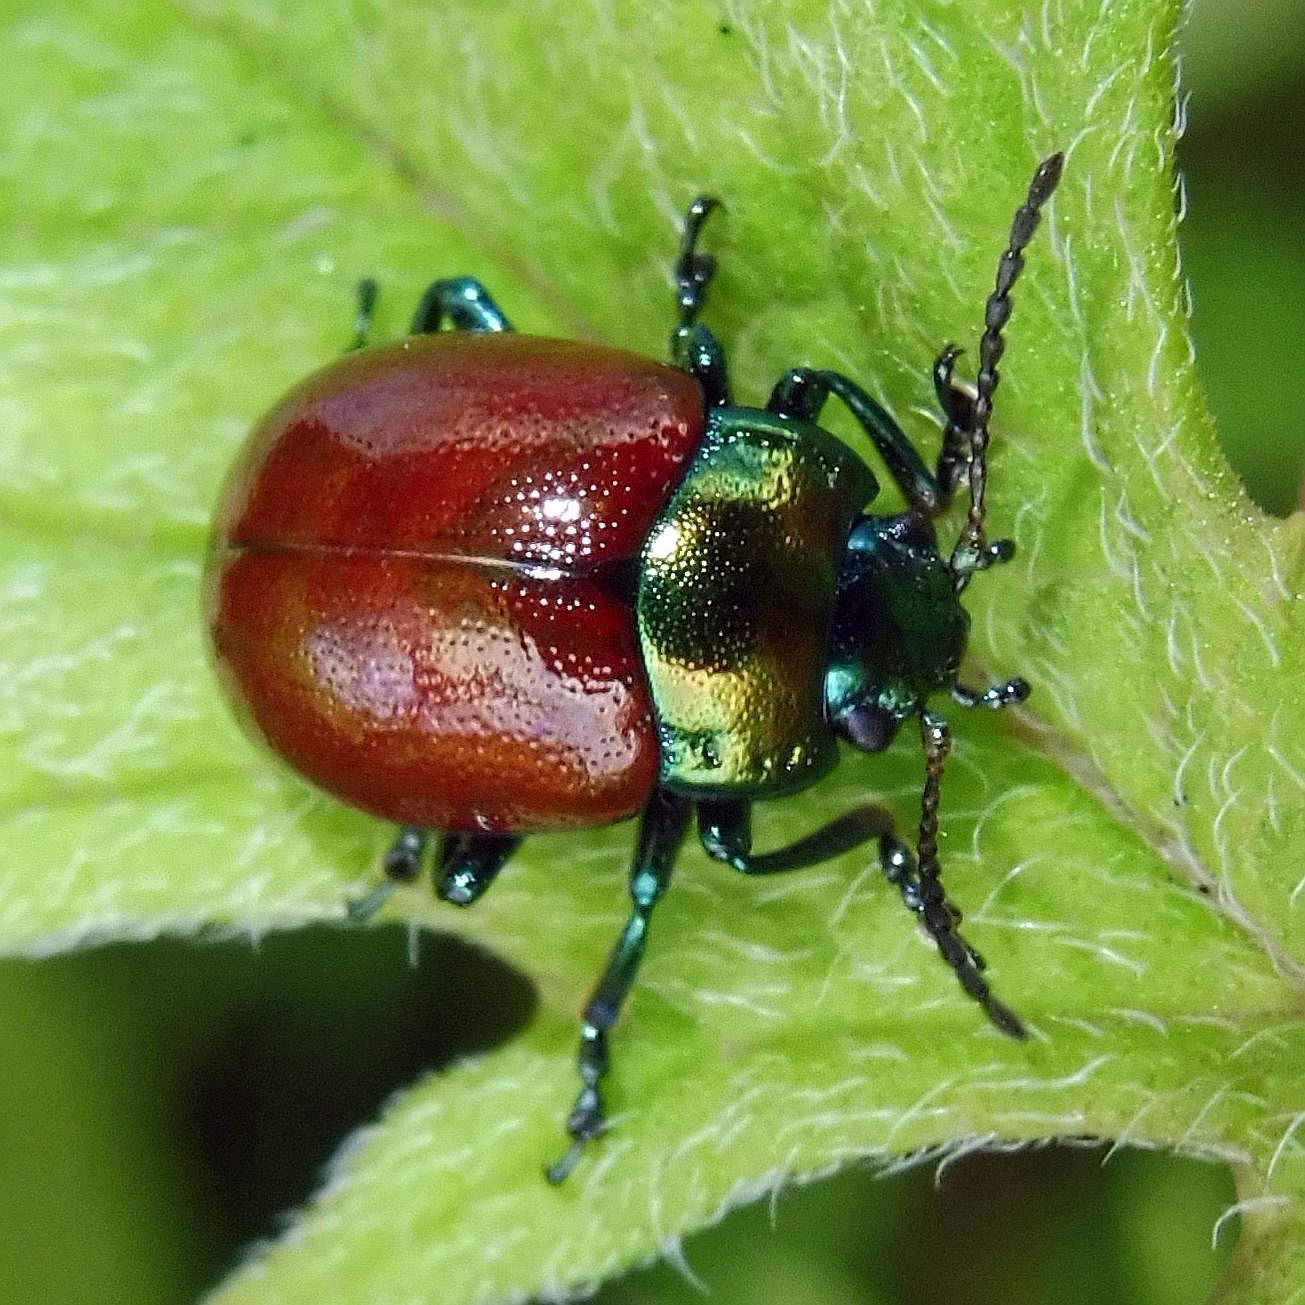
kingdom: Animalia
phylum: Arthropoda
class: Insecta
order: Coleoptera
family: Chrysomelidae
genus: Chrysomela
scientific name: Chrysomela polita
